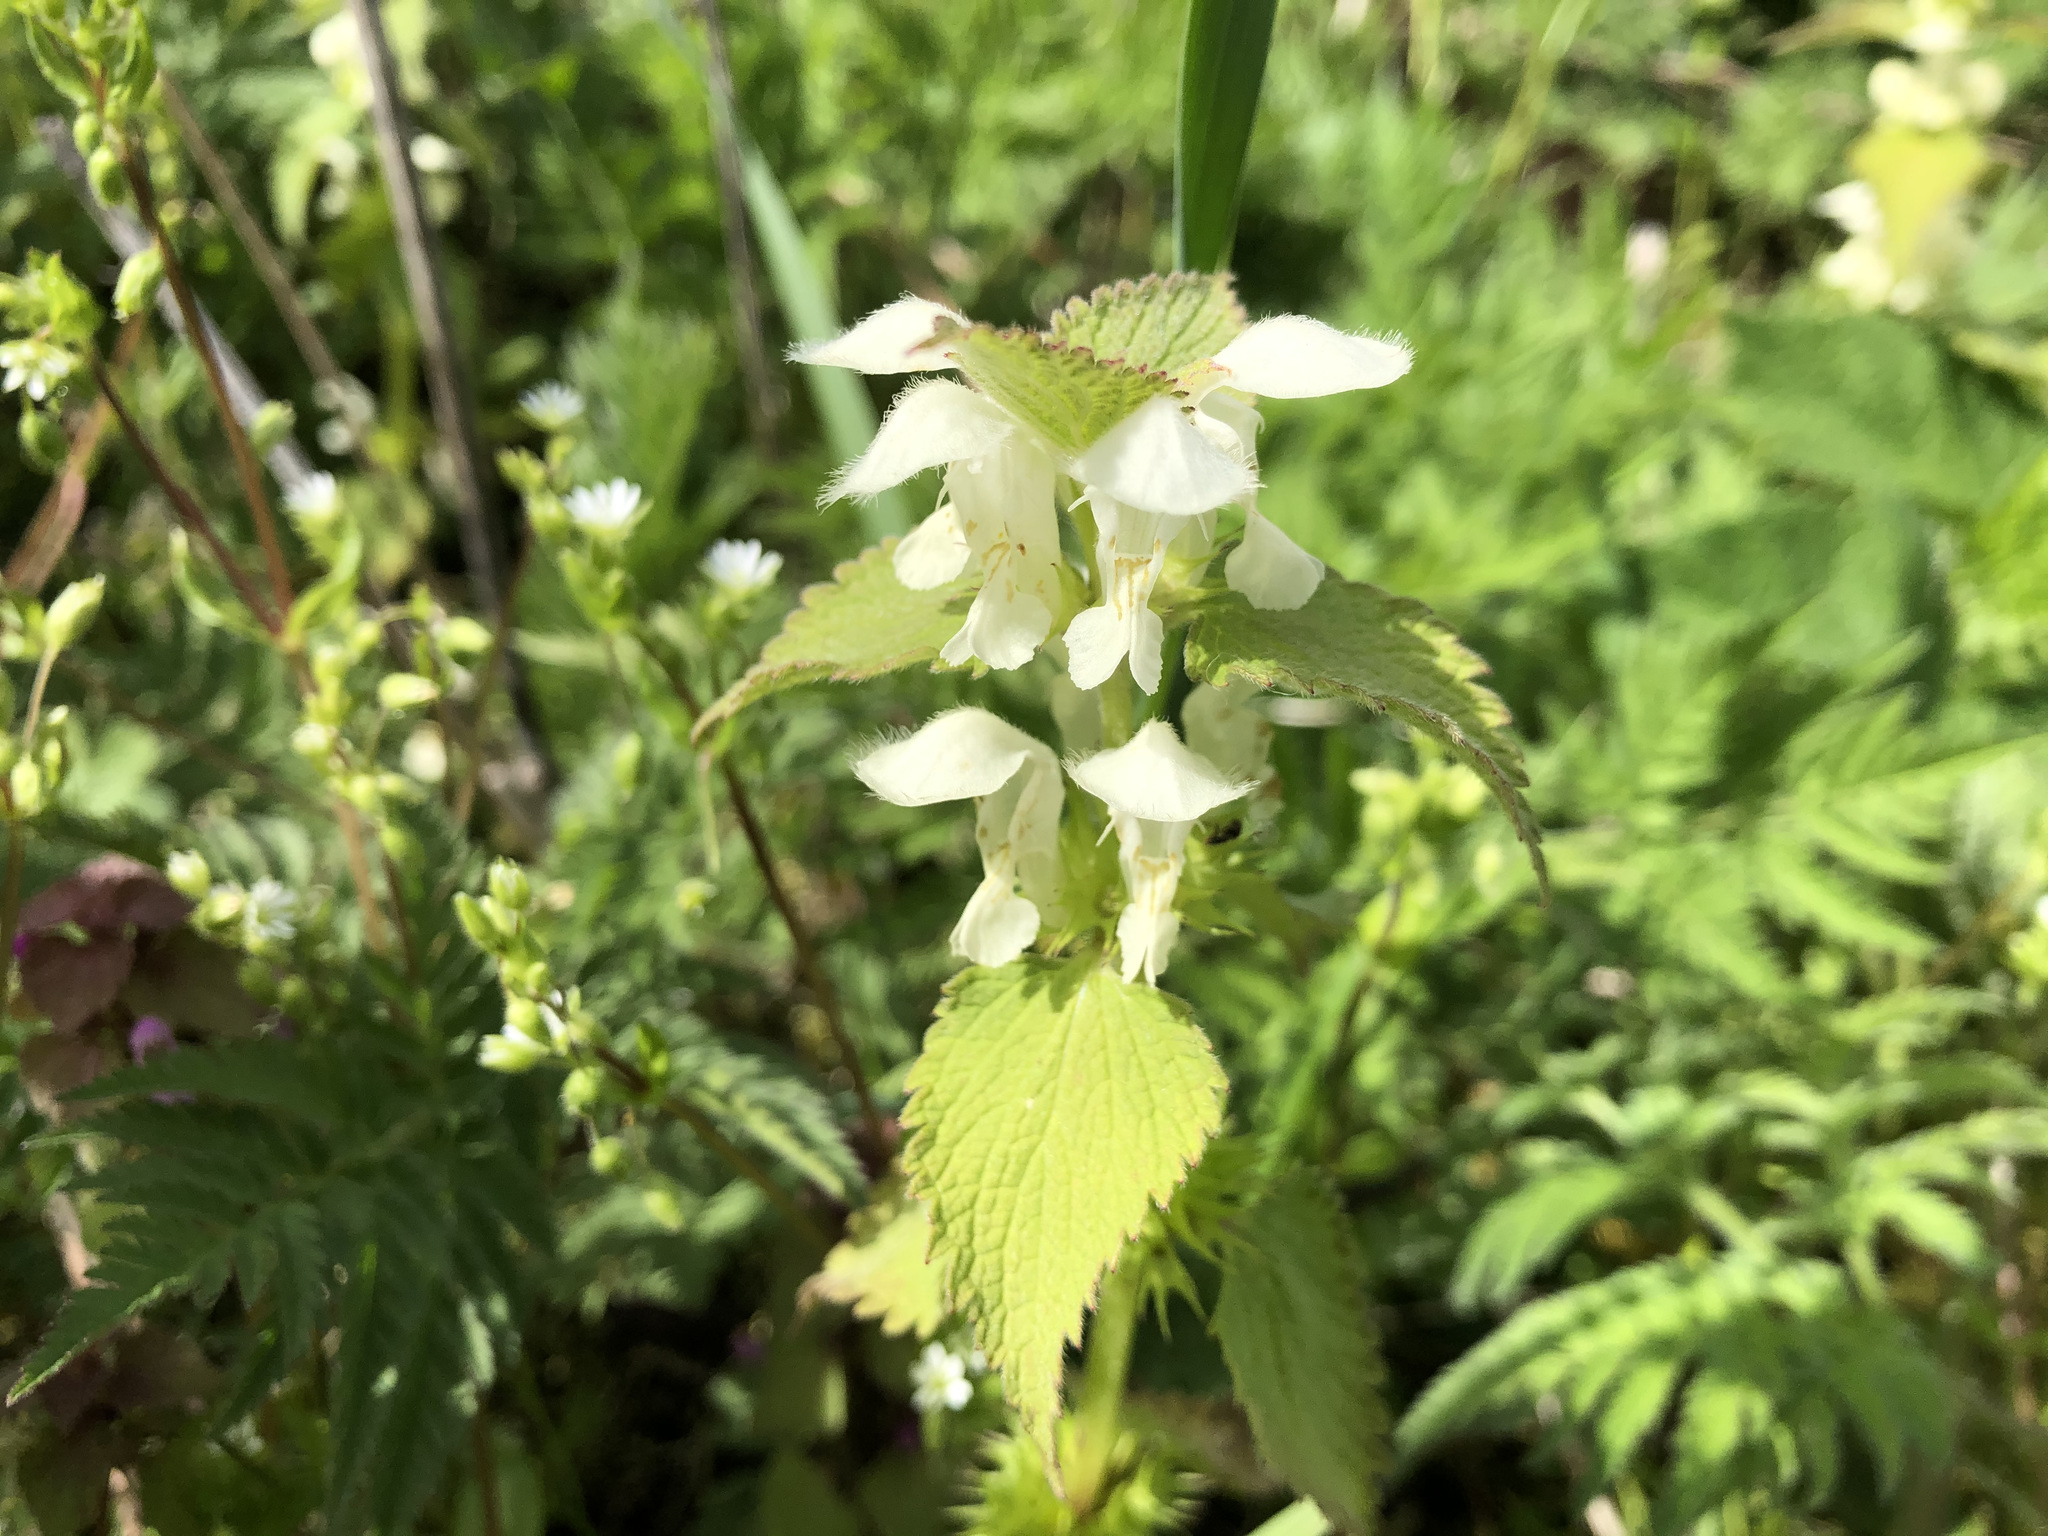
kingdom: Plantae
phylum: Tracheophyta
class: Magnoliopsida
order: Lamiales
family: Lamiaceae
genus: Lamium
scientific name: Lamium album
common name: White dead-nettle
